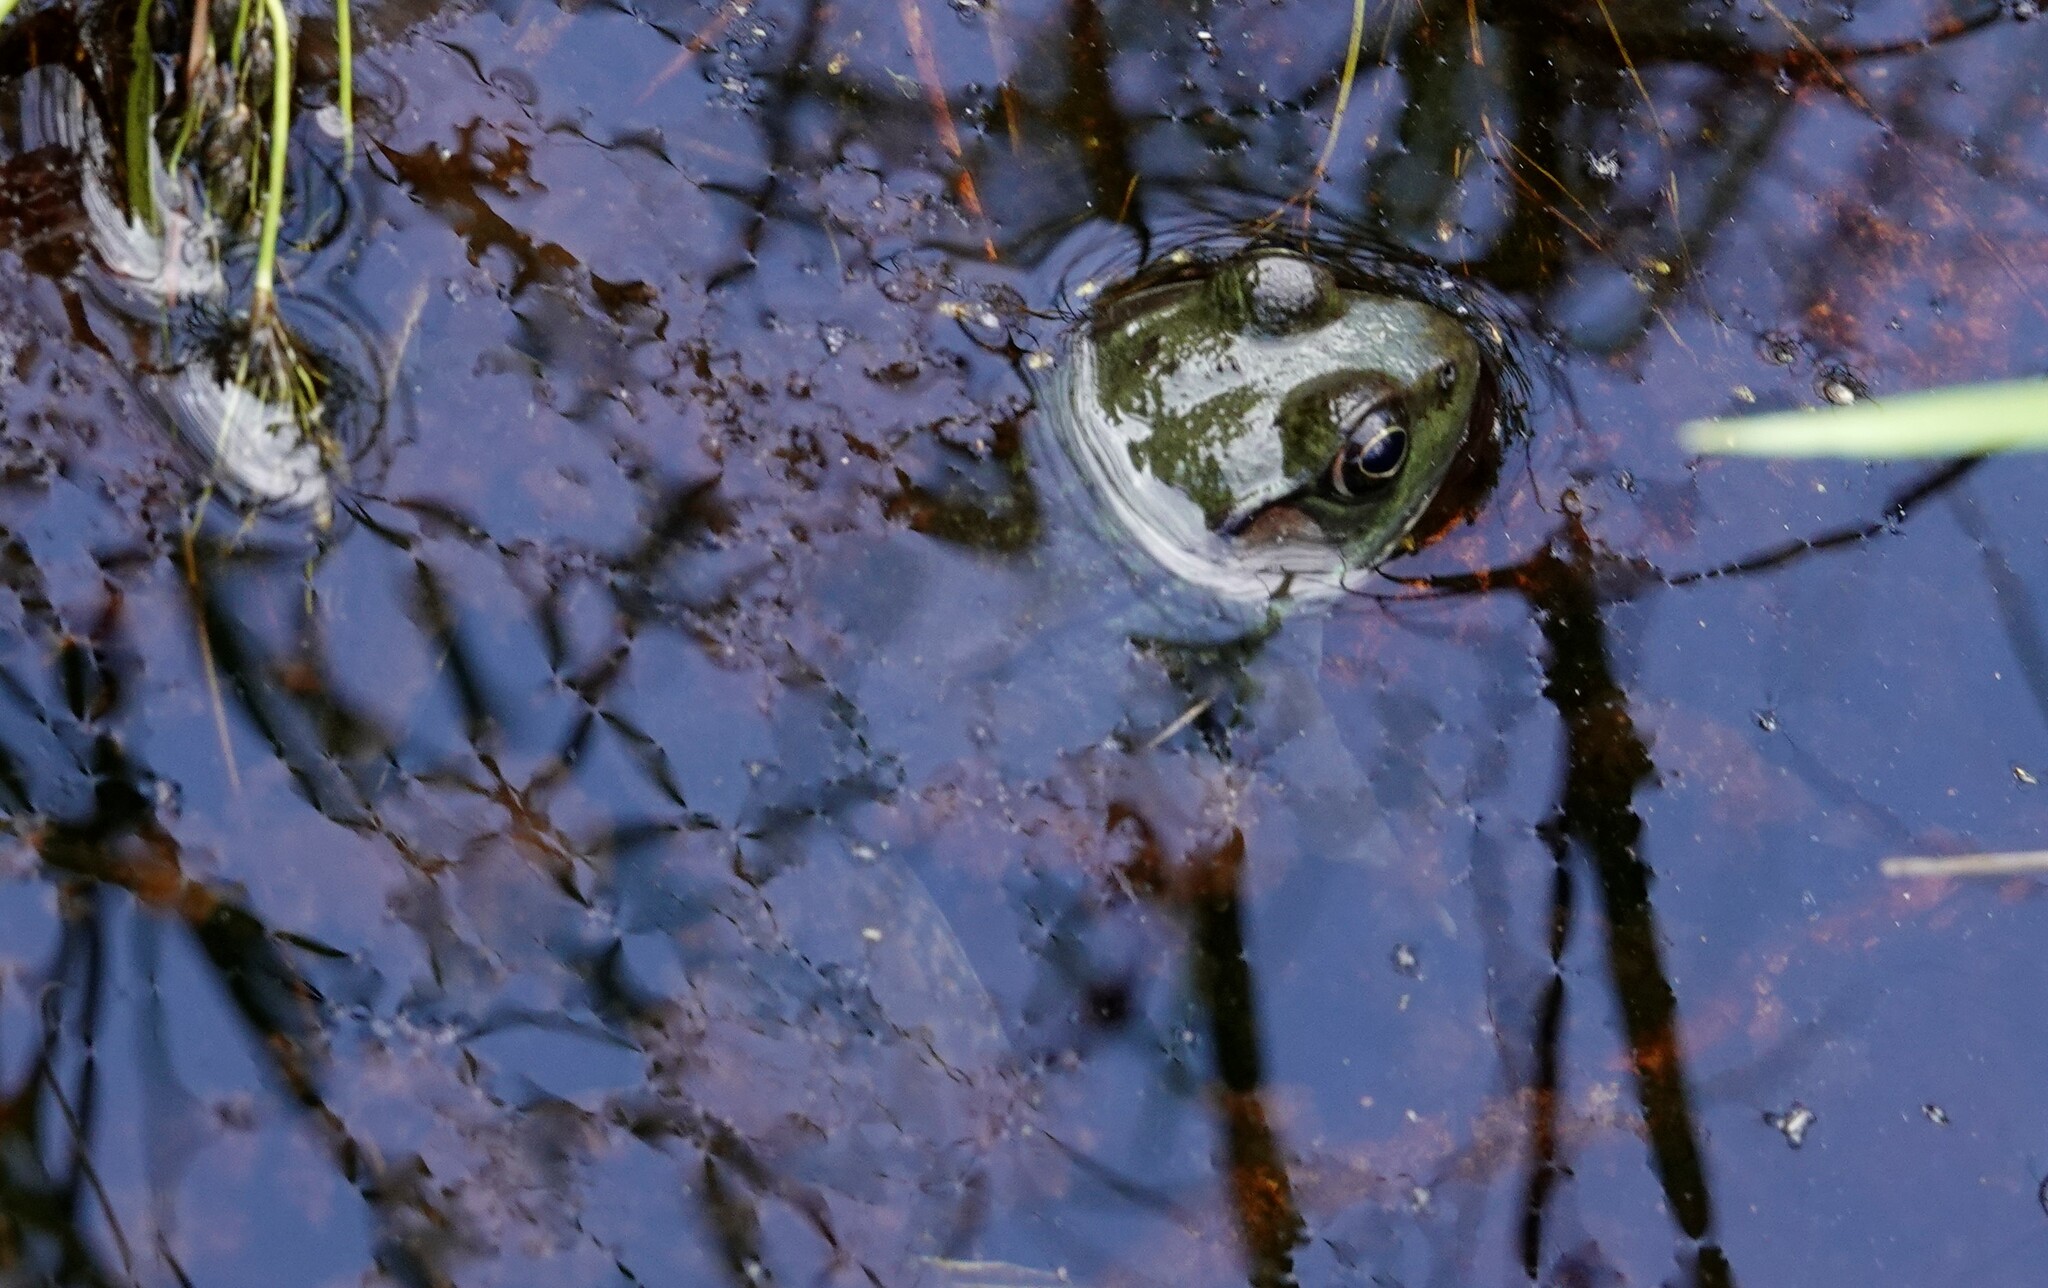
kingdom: Animalia
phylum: Chordata
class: Amphibia
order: Anura
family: Ranidae
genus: Lithobates
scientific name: Lithobates clamitans
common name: Green frog
